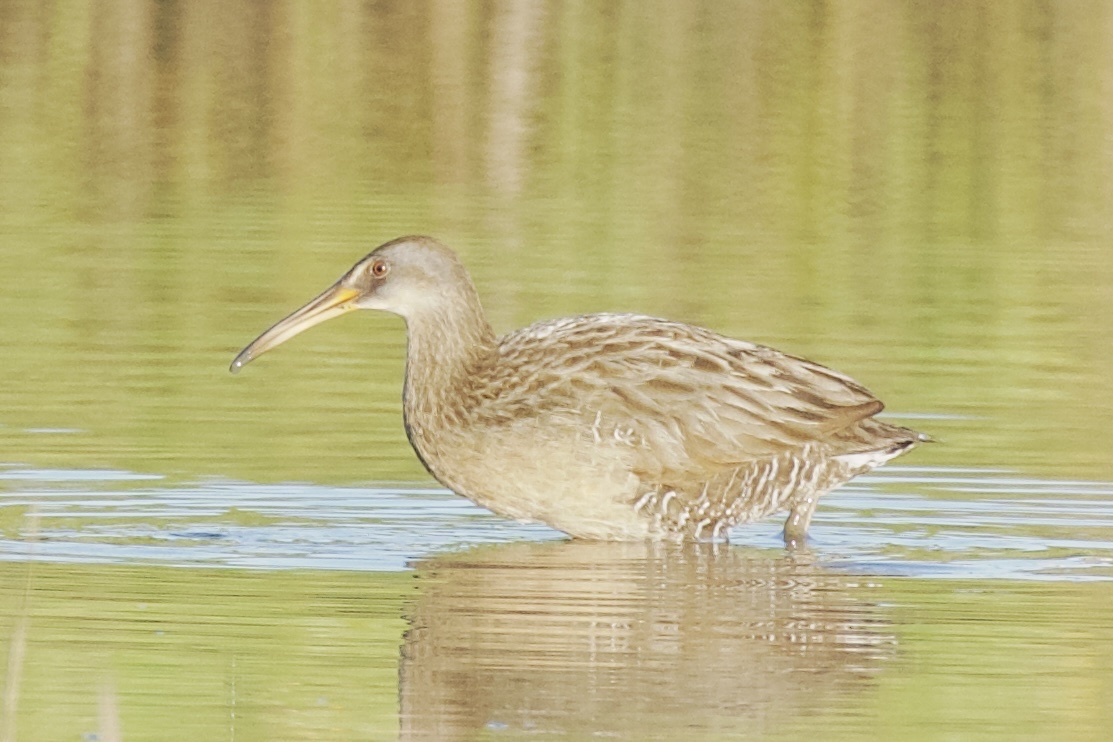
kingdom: Animalia
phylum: Chordata
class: Aves
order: Gruiformes
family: Rallidae
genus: Rallus
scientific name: Rallus crepitans
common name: Clapper rail
